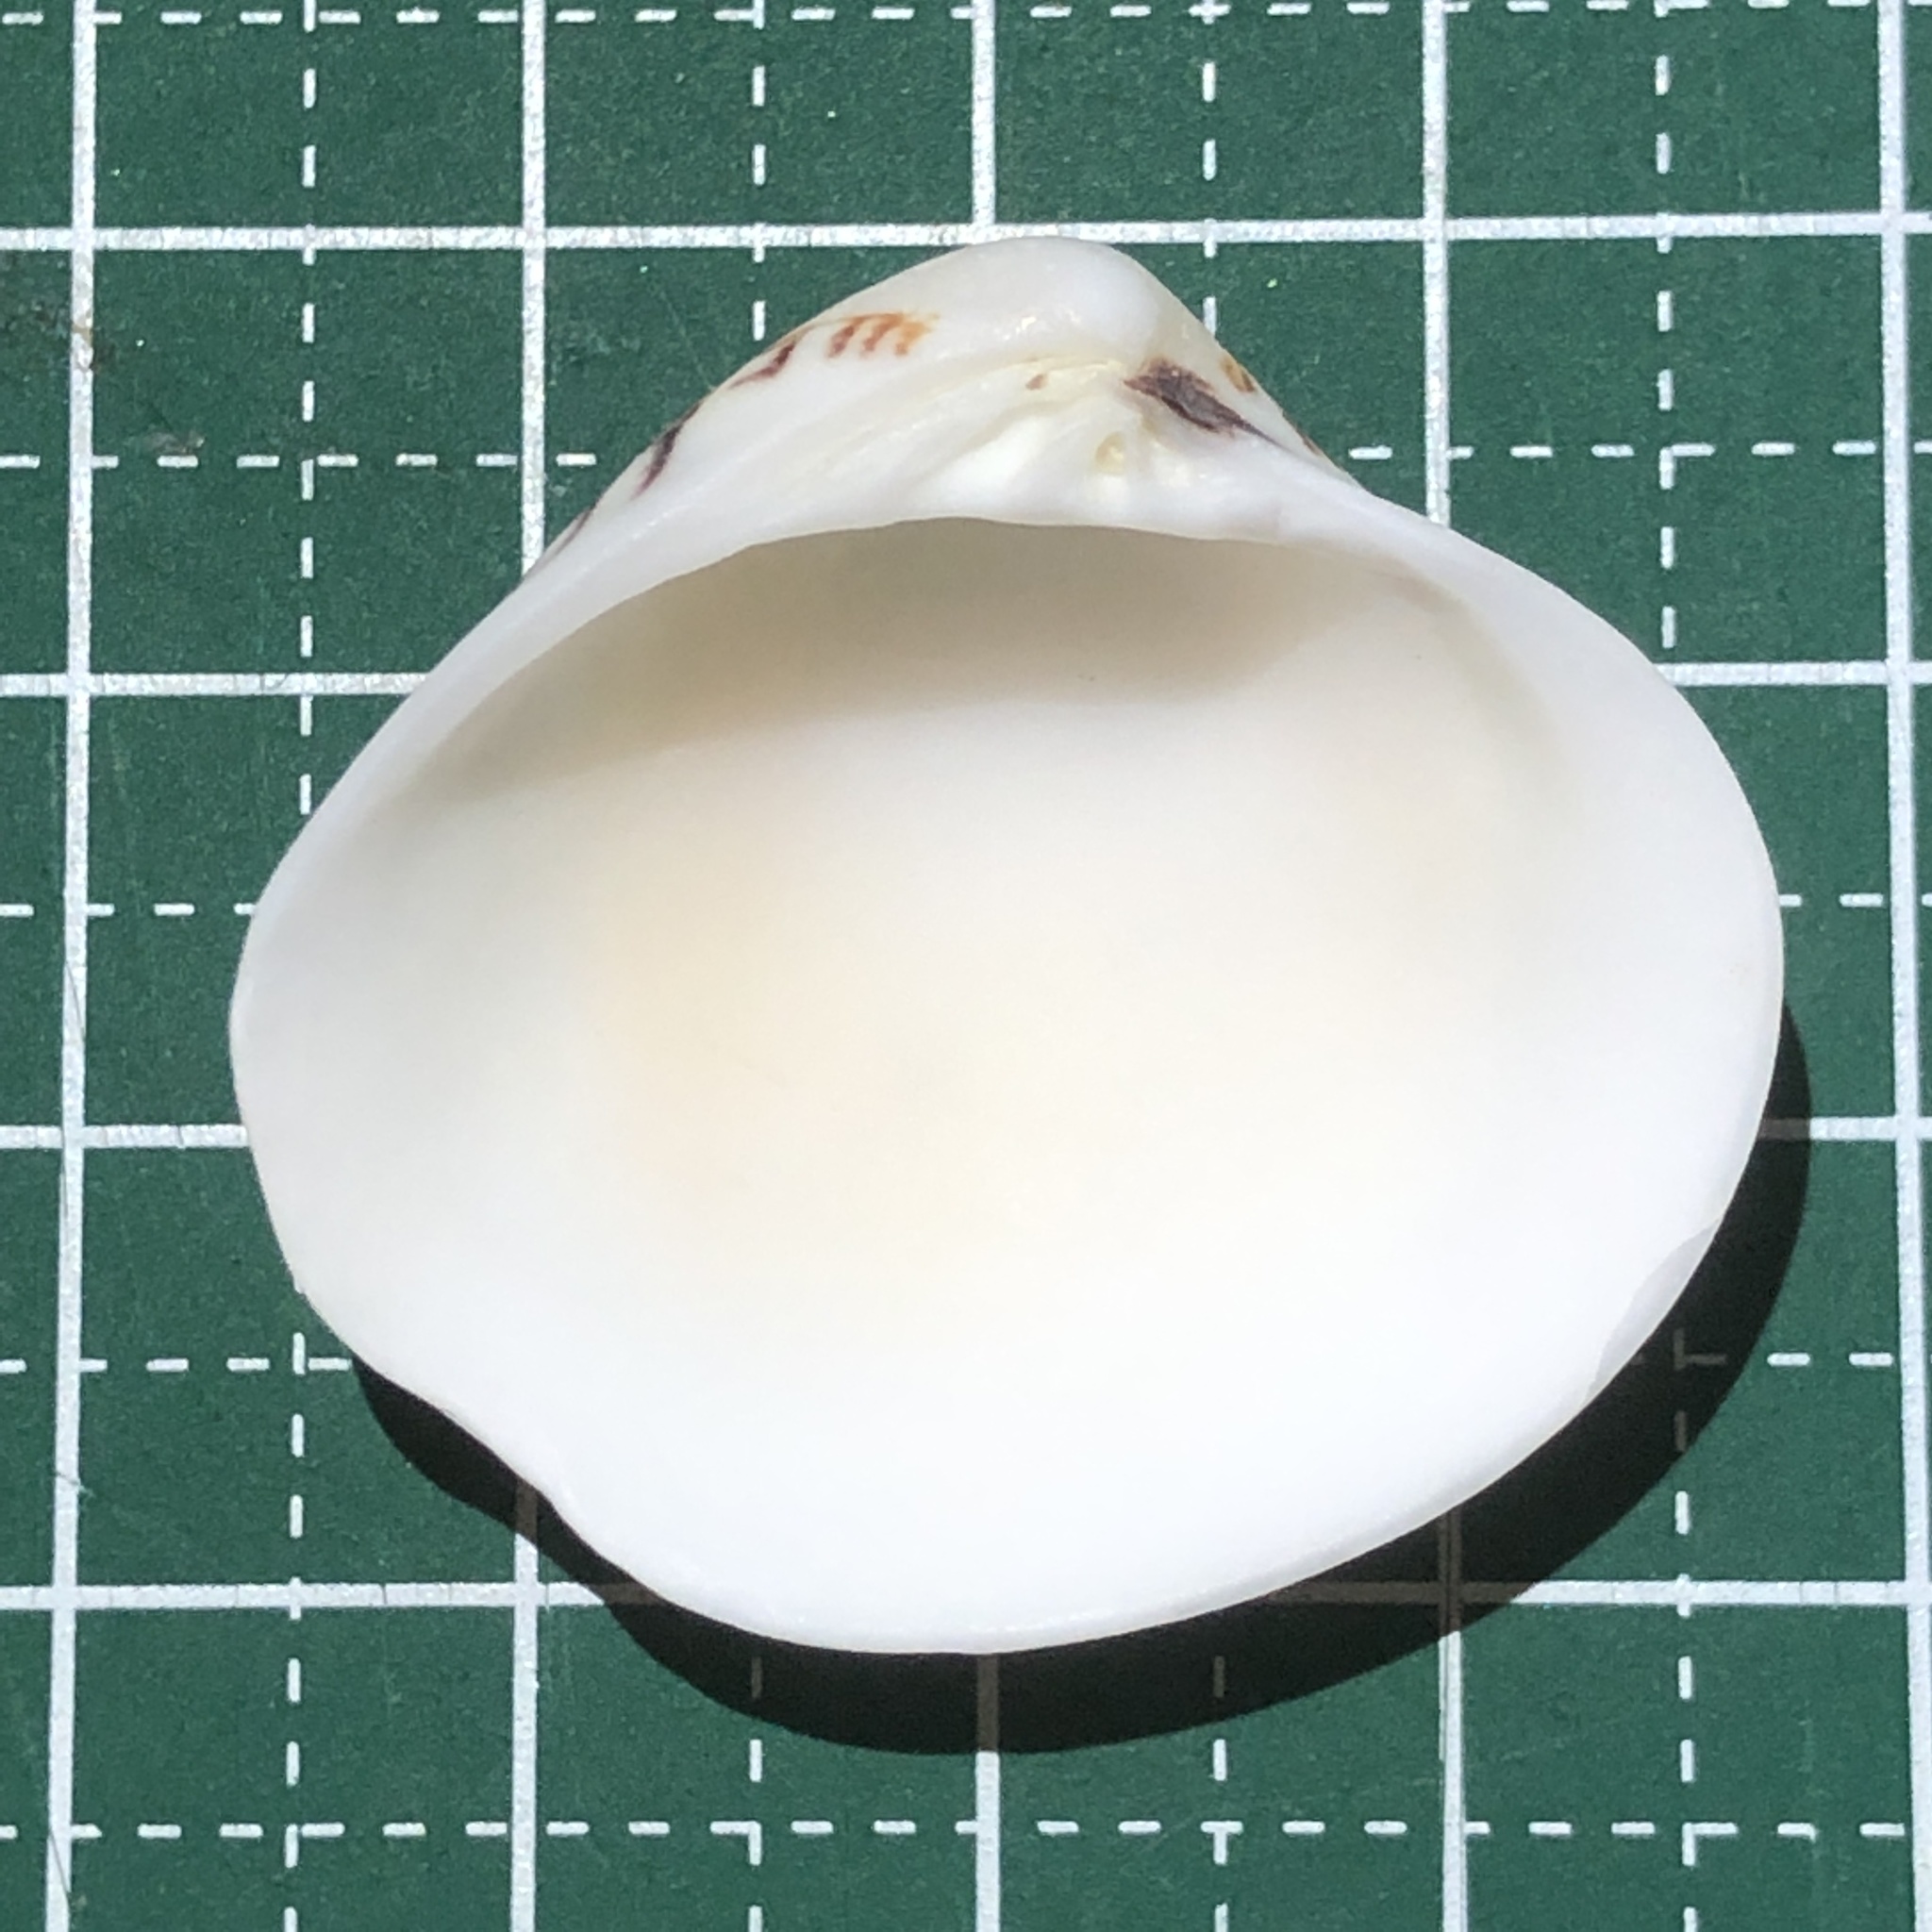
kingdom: Animalia
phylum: Mollusca
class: Bivalvia
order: Venerida
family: Veneridae
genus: Lioconcha
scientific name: Lioconcha fastigiata
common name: Clam
